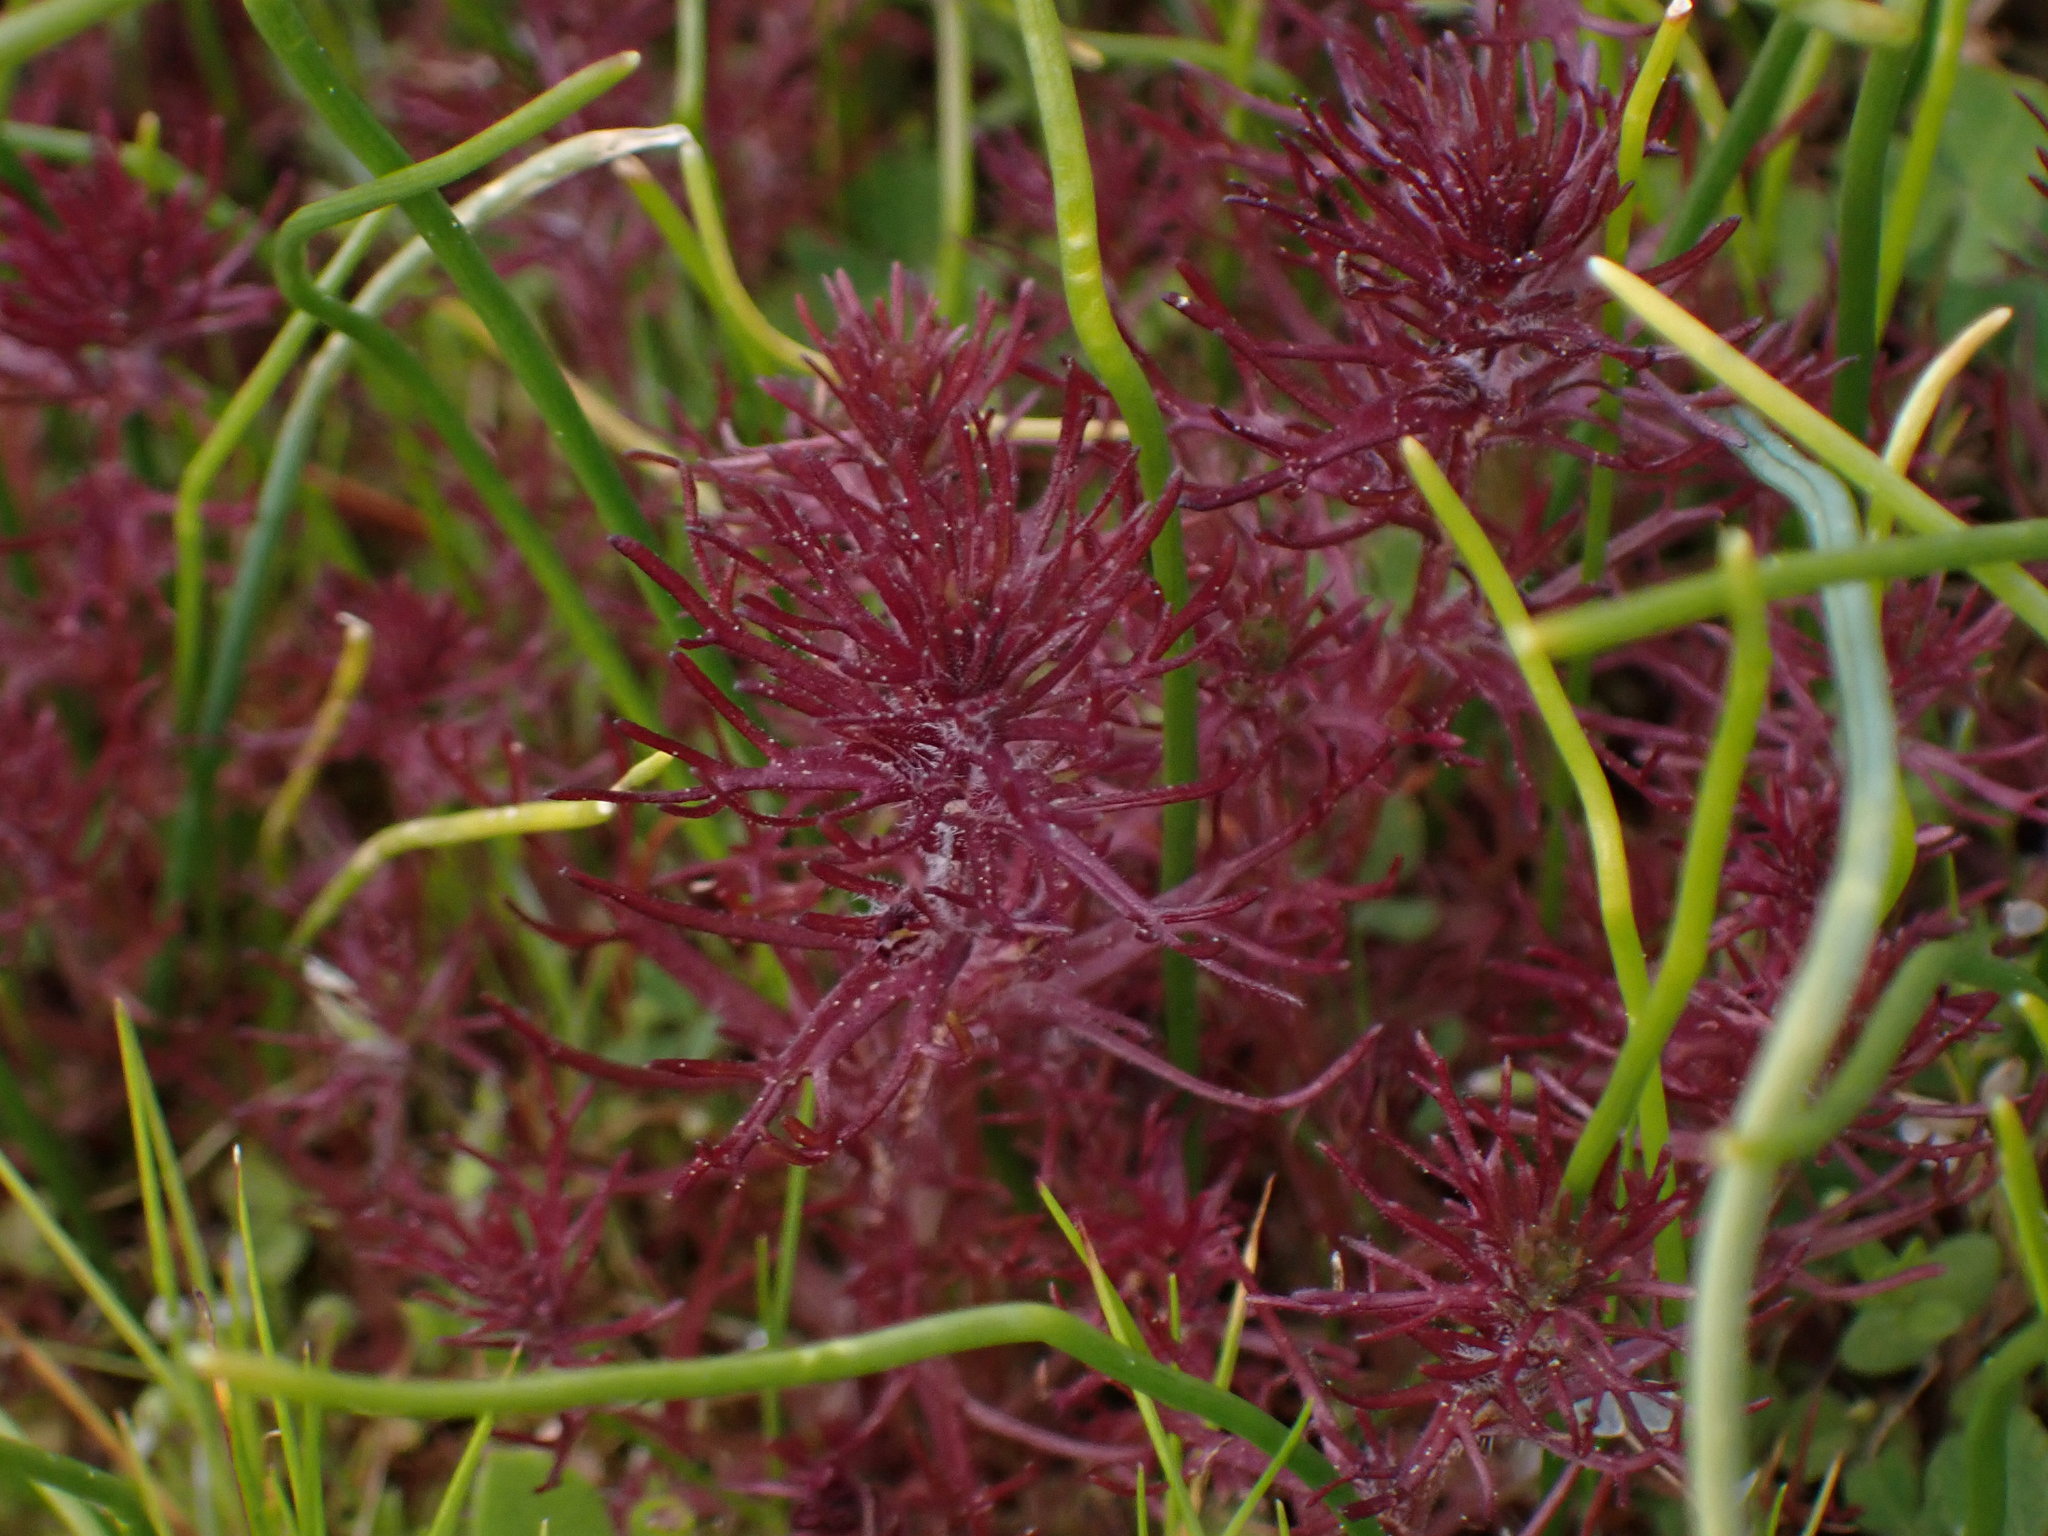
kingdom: Plantae
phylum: Tracheophyta
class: Magnoliopsida
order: Lamiales
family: Orobanchaceae
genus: Triphysaria
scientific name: Triphysaria pusilla
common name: Dwarf false owl-clover
